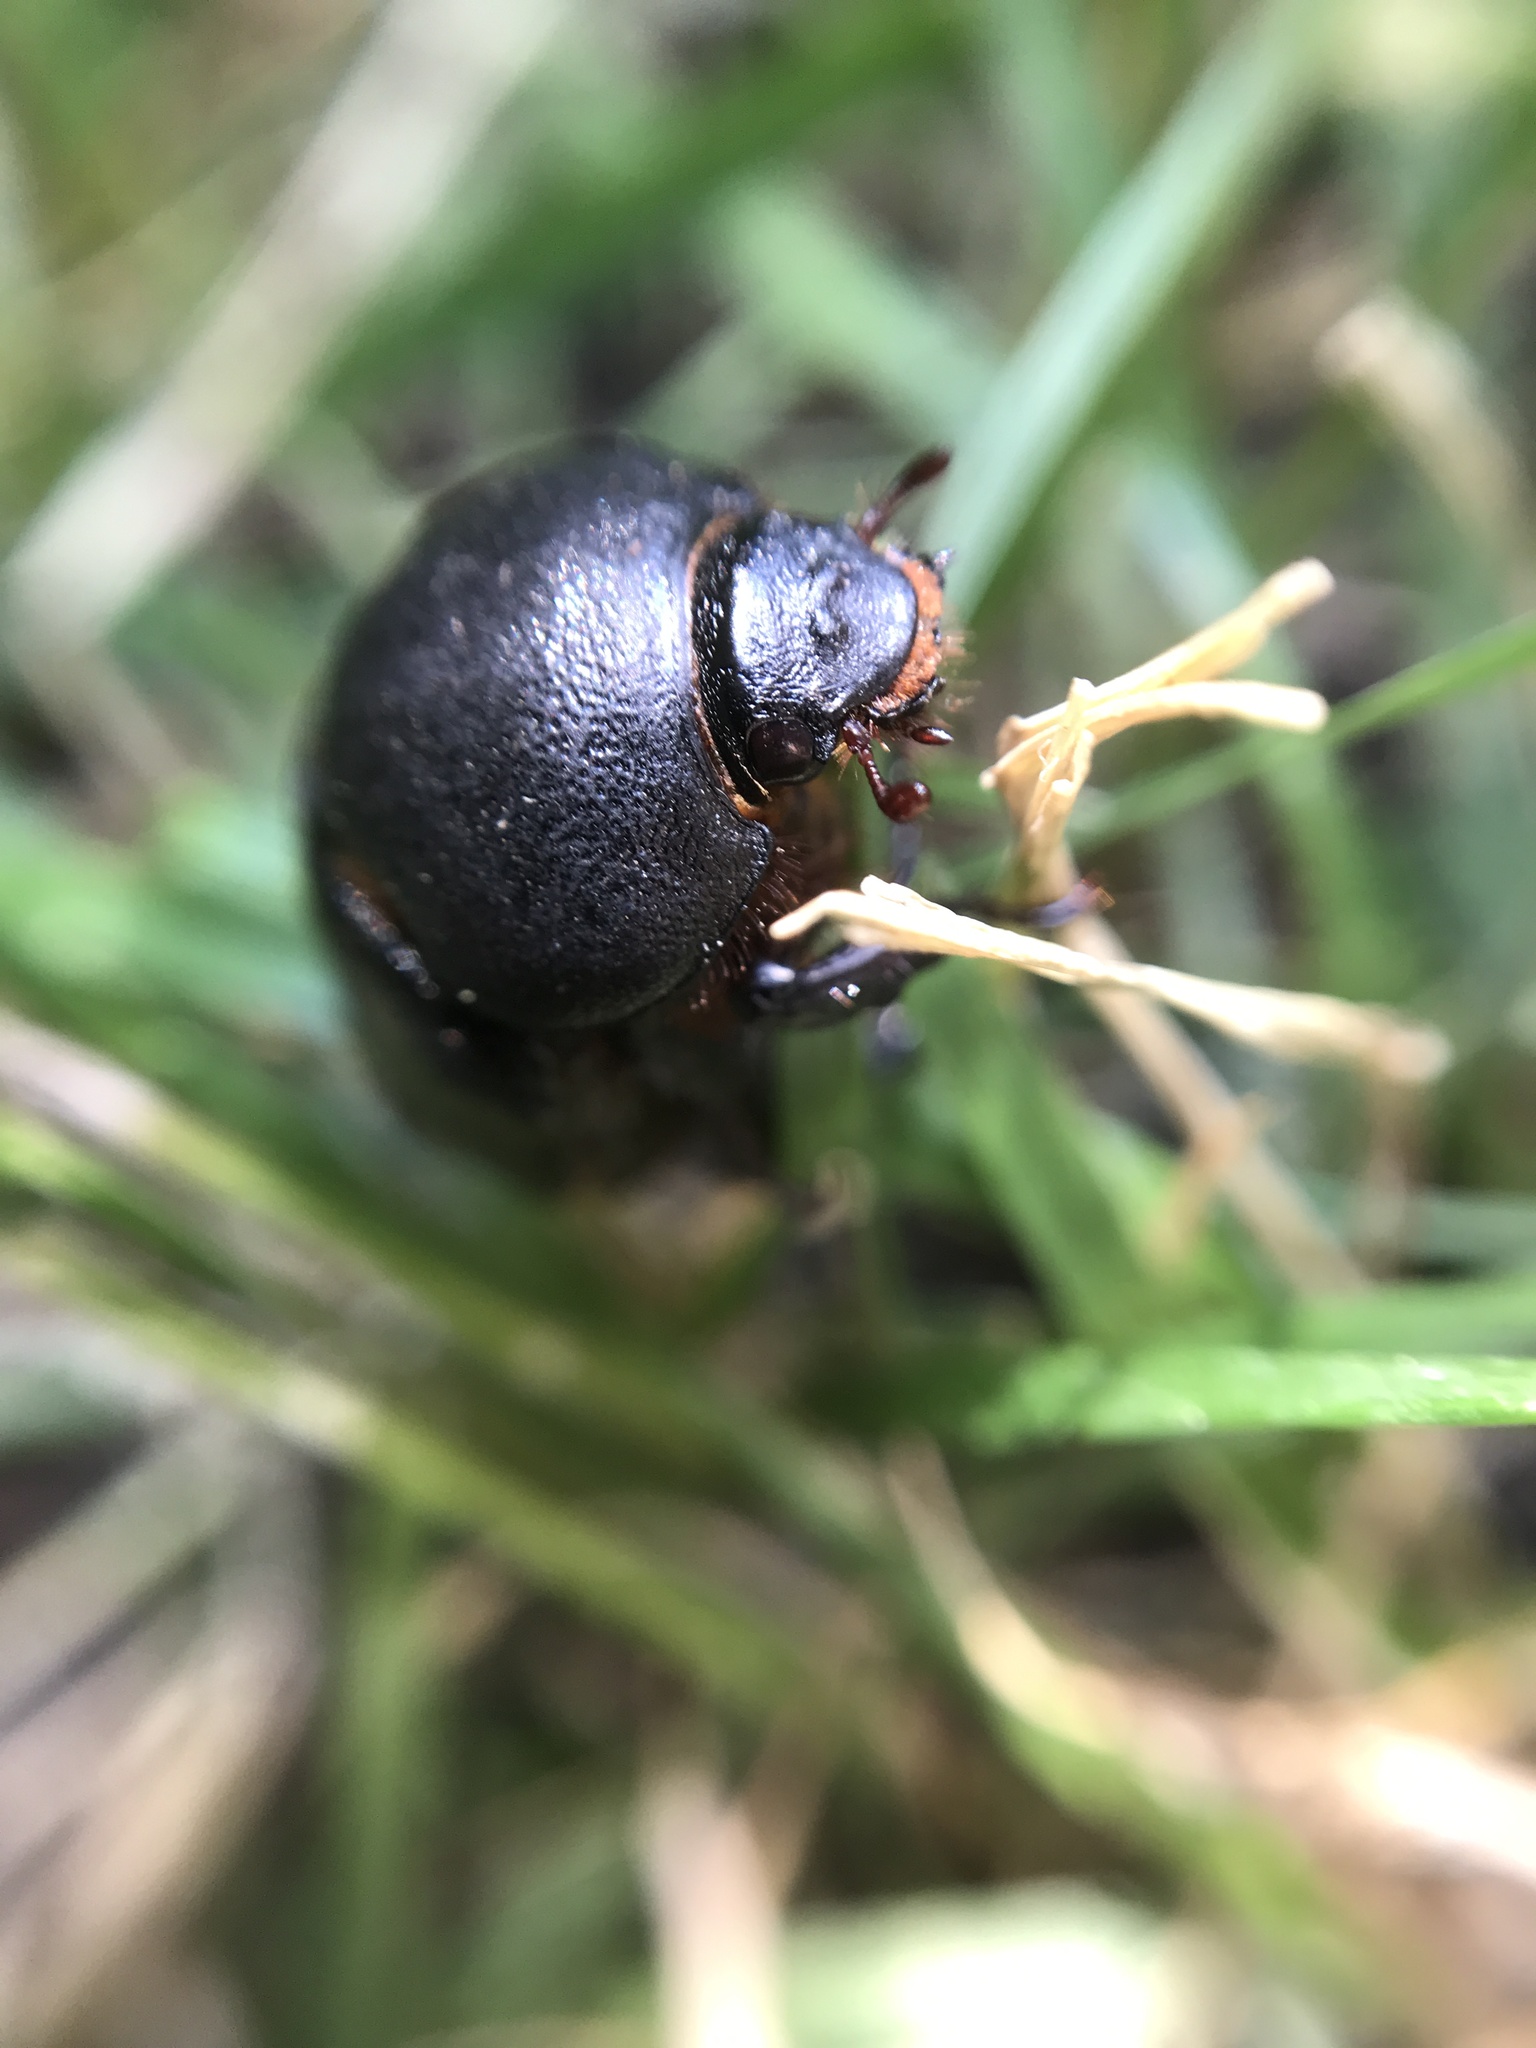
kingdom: Animalia
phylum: Arthropoda
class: Insecta
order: Coleoptera
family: Scarabaeidae
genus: Pentodon
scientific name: Pentodon bidens
